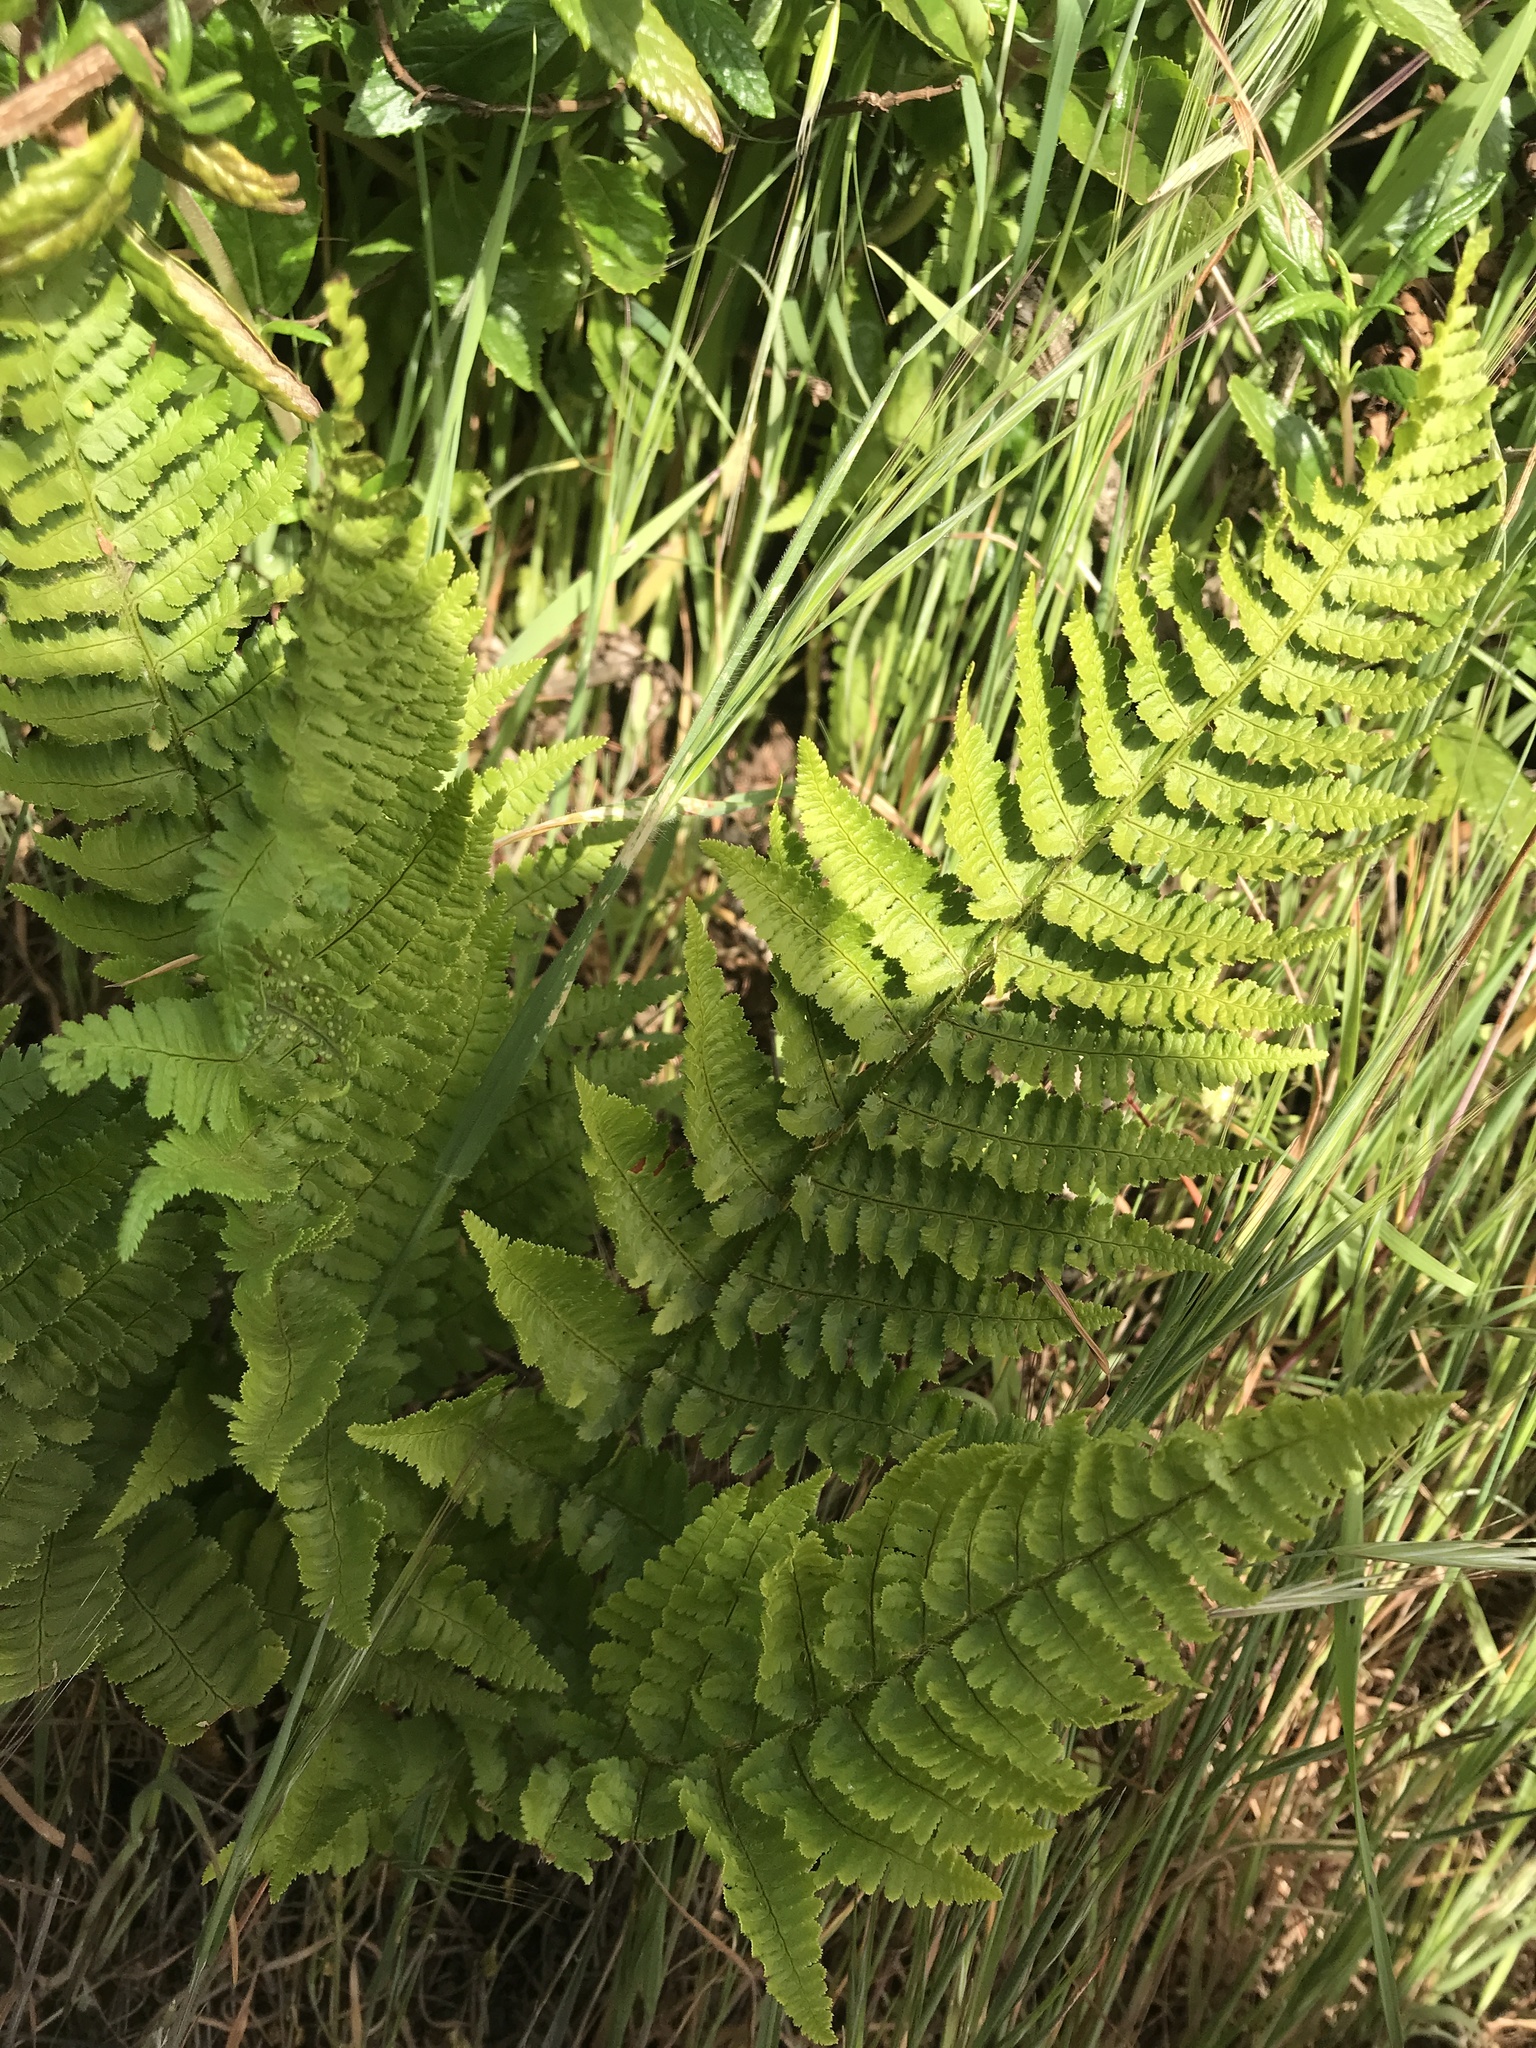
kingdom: Plantae
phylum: Tracheophyta
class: Polypodiopsida
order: Polypodiales
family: Dryopteridaceae
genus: Dryopteris
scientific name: Dryopteris arguta
